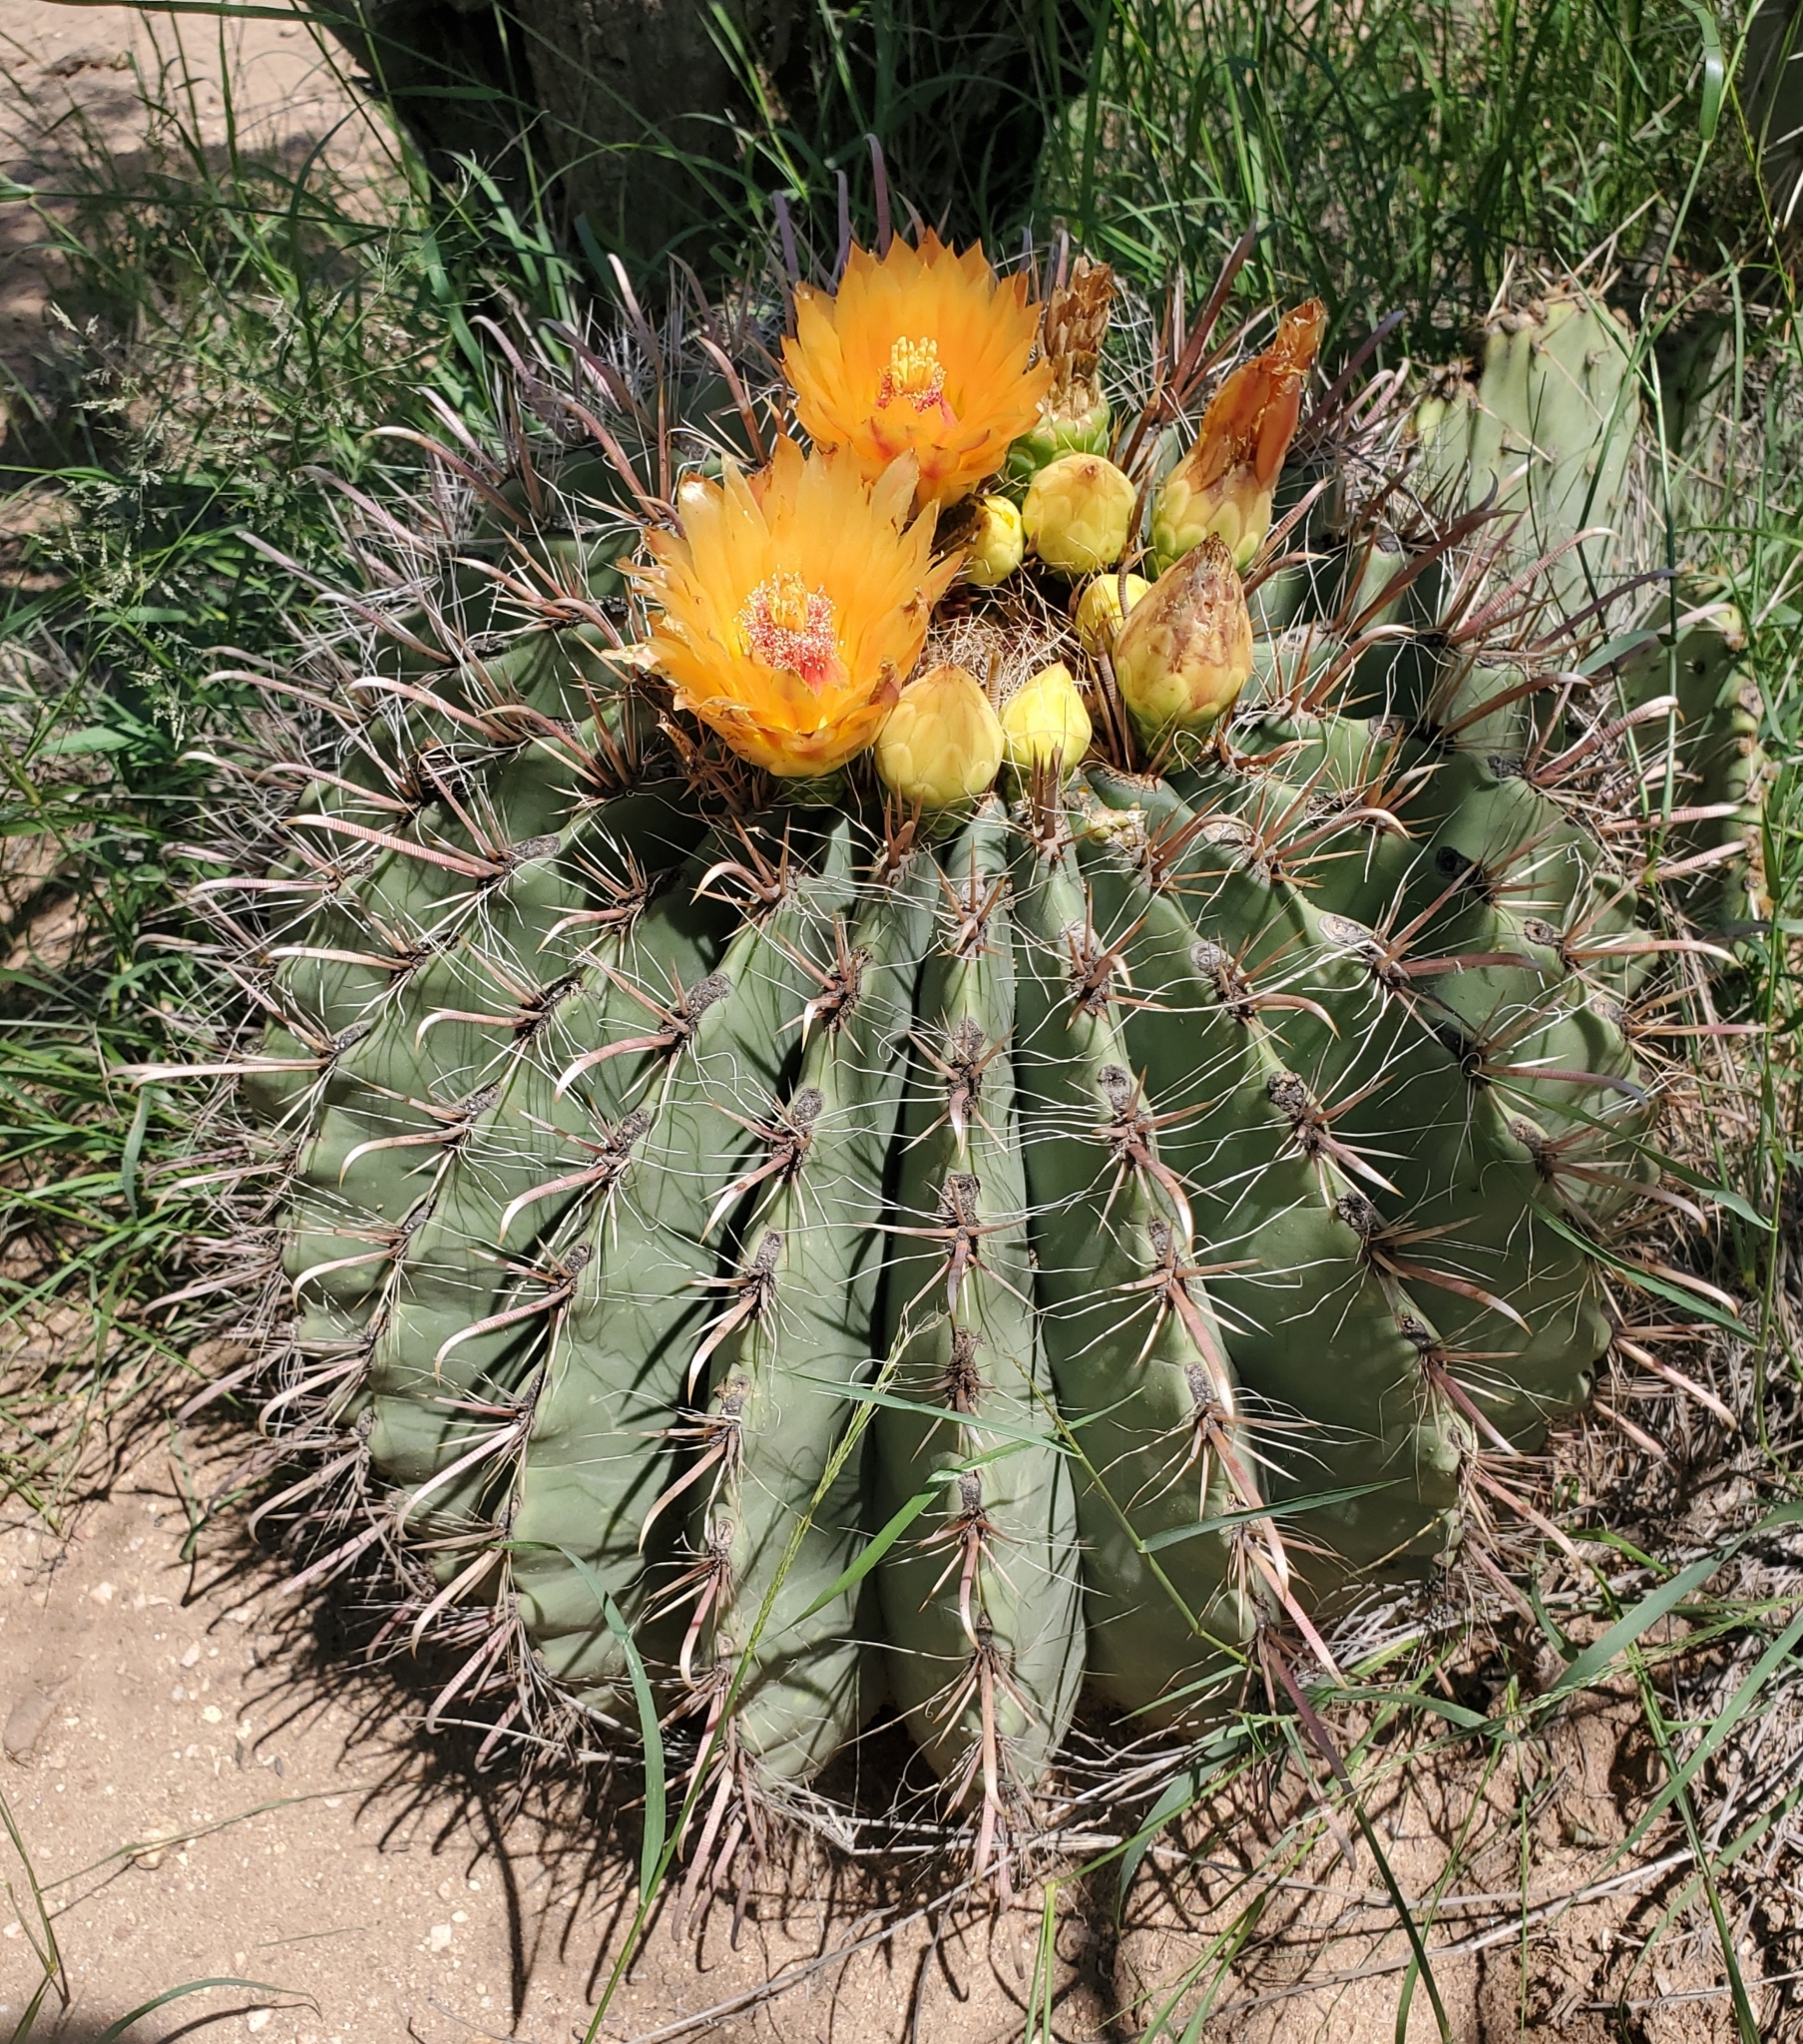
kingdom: Plantae
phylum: Tracheophyta
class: Magnoliopsida
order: Caryophyllales
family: Cactaceae
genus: Ferocactus
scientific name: Ferocactus wislizeni
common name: Candy barrel cactus
